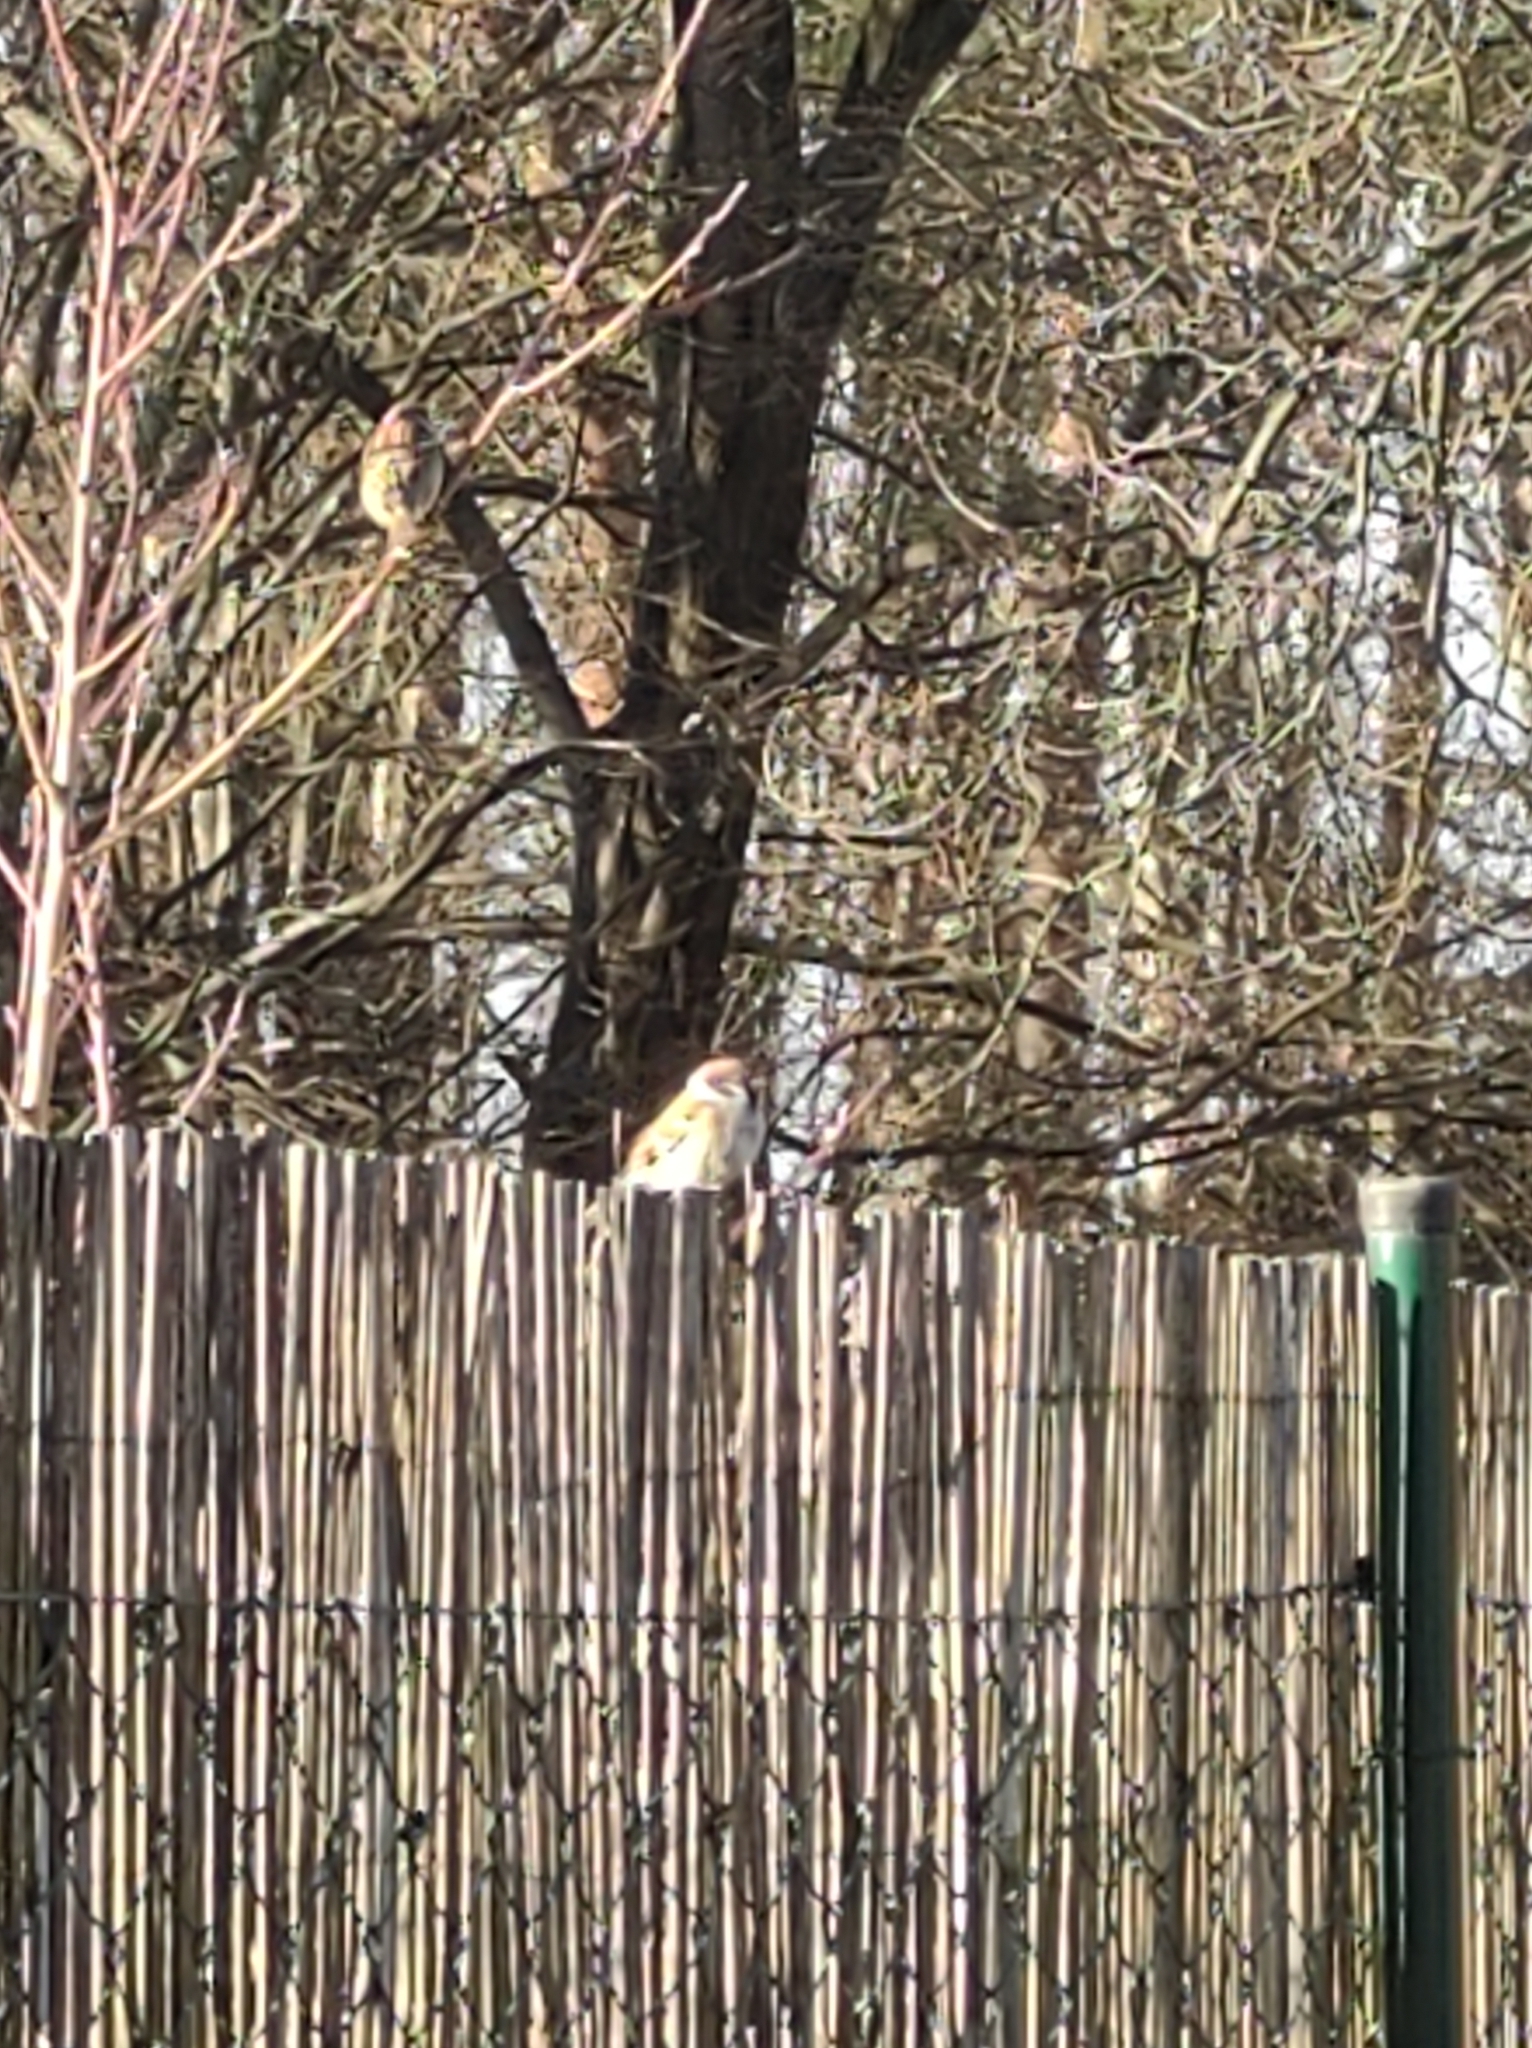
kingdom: Animalia
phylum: Chordata
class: Aves
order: Passeriformes
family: Passeridae
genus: Passer
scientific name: Passer montanus
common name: Eurasian tree sparrow
